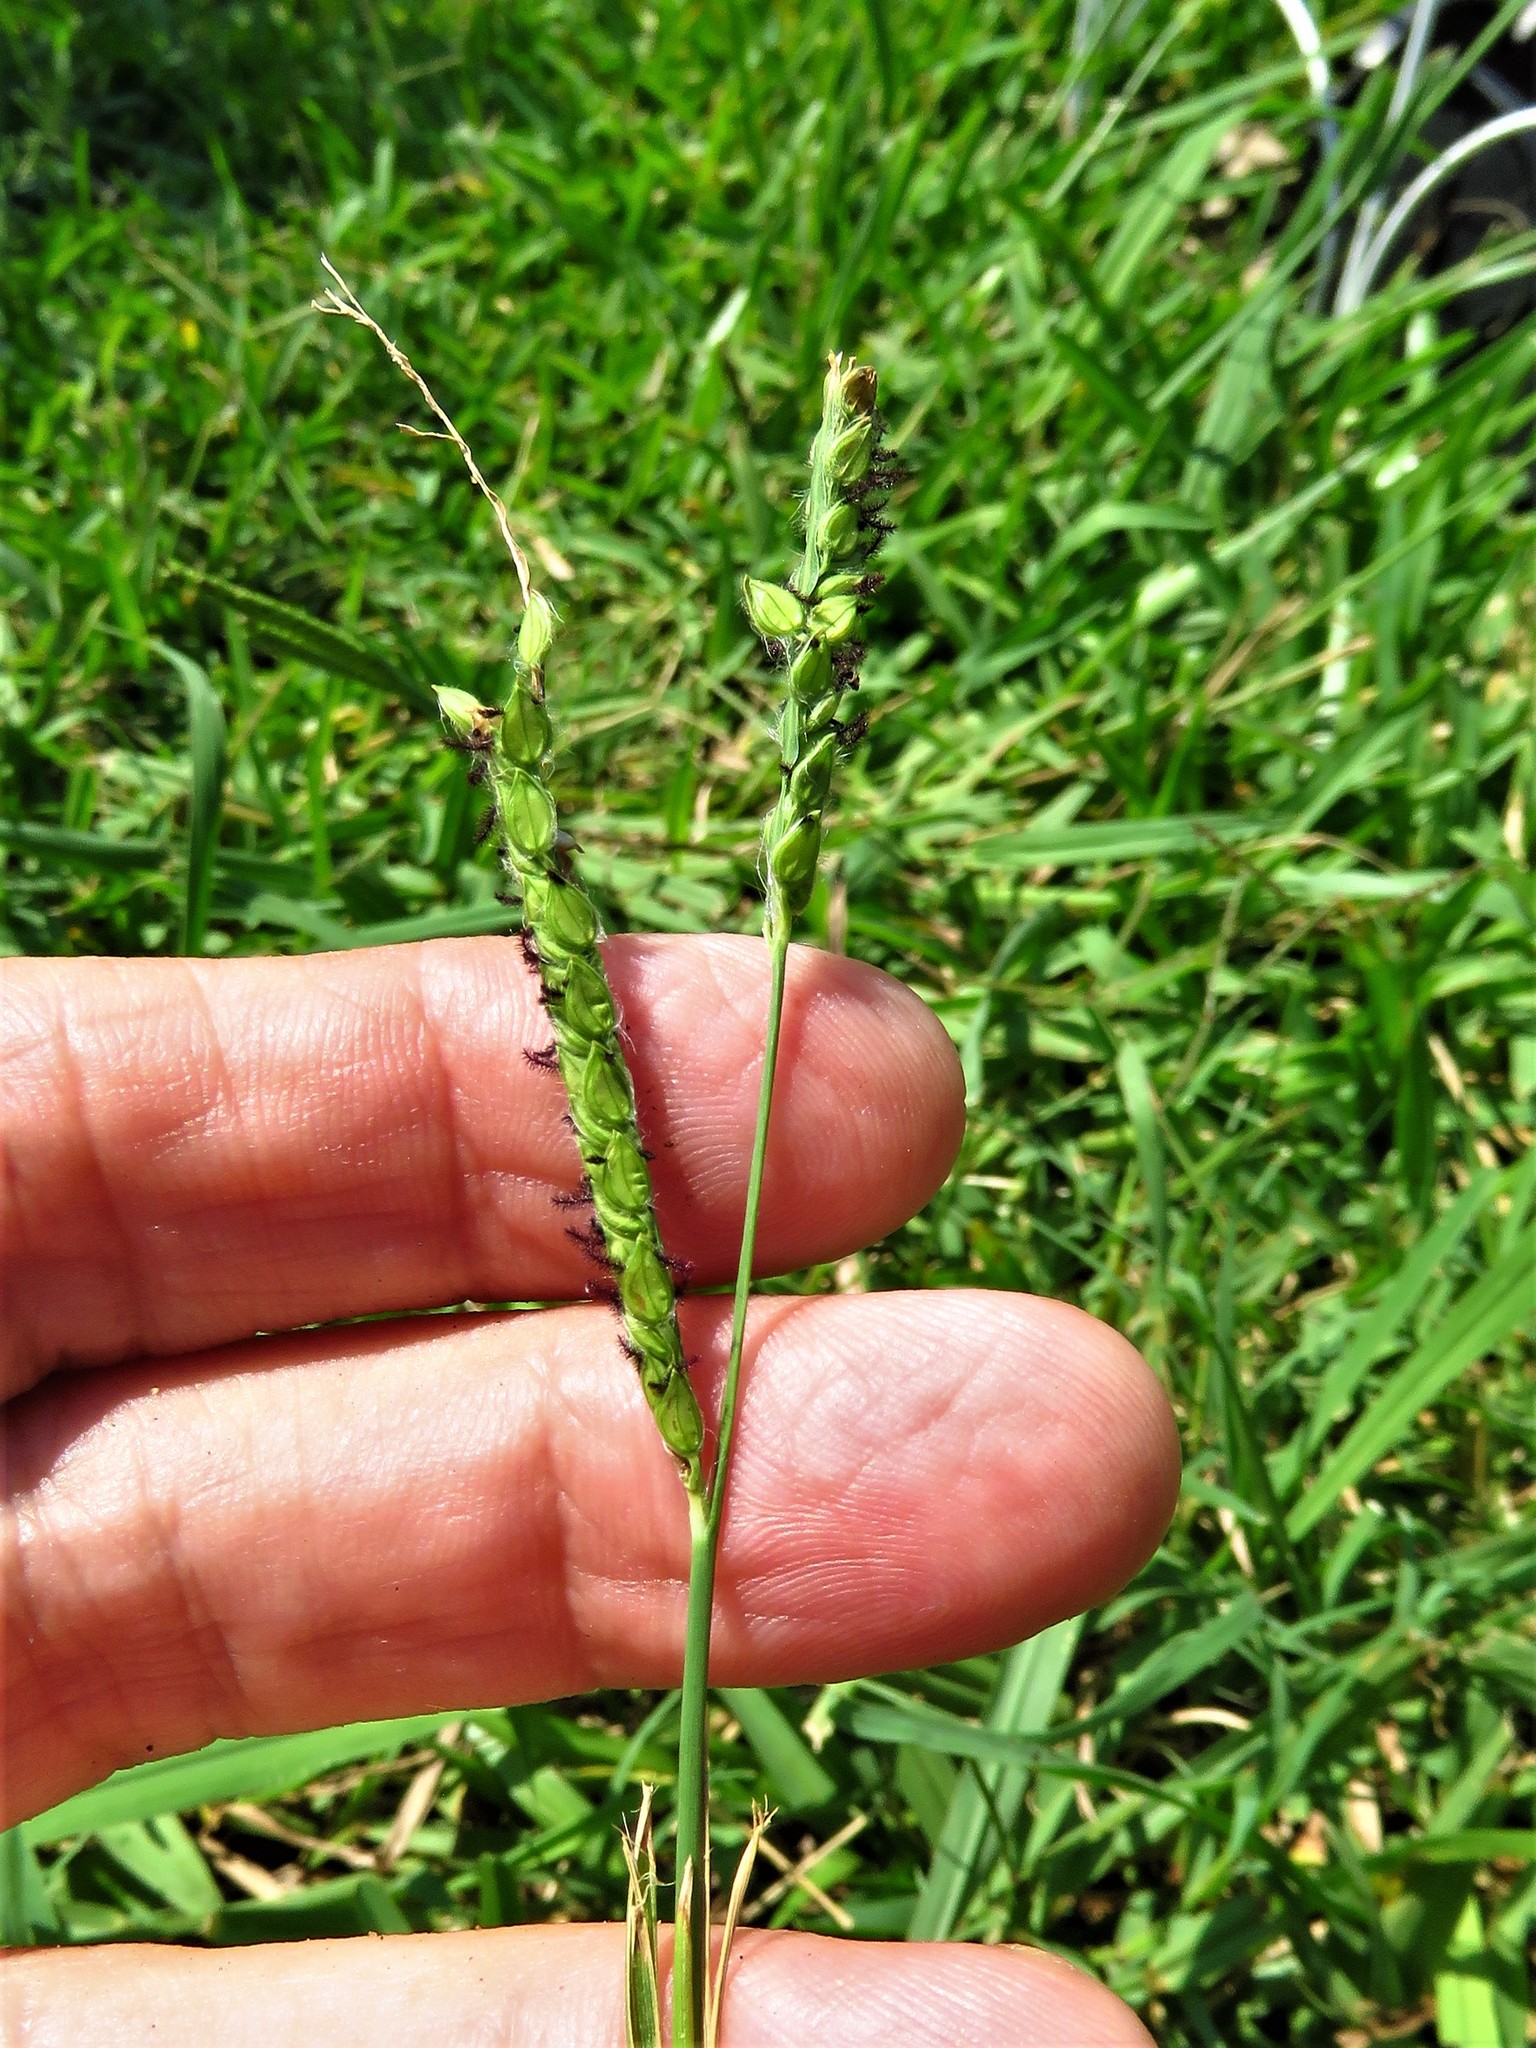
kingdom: Plantae
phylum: Tracheophyta
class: Liliopsida
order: Poales
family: Poaceae
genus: Paspalum
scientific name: Paspalum dilatatum
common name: Dallisgrass
